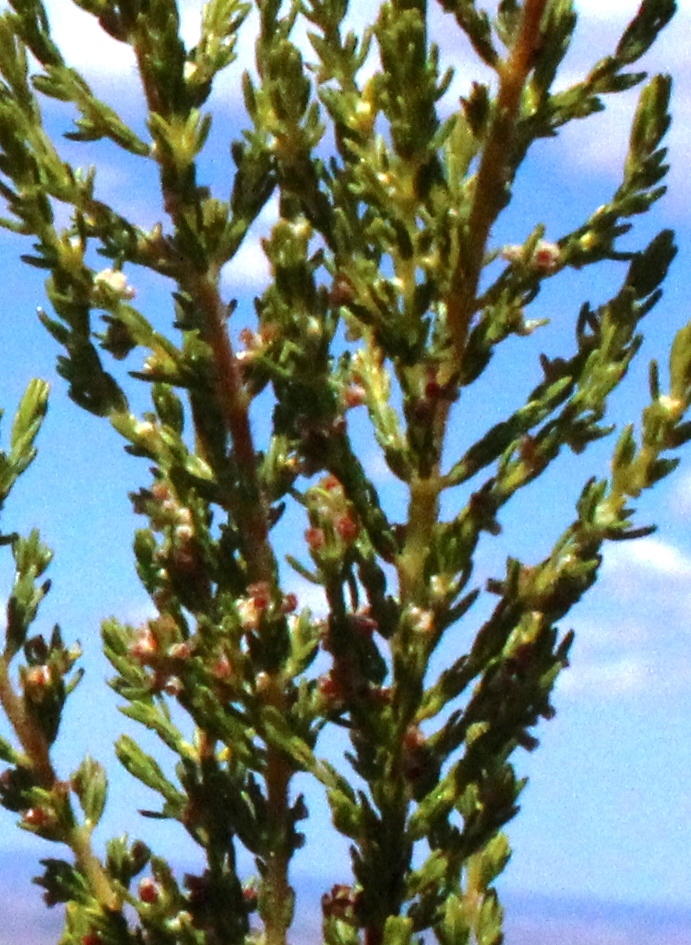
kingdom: Plantae
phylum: Tracheophyta
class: Magnoliopsida
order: Ericales
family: Ericaceae
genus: Erica
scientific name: Erica muscosa
